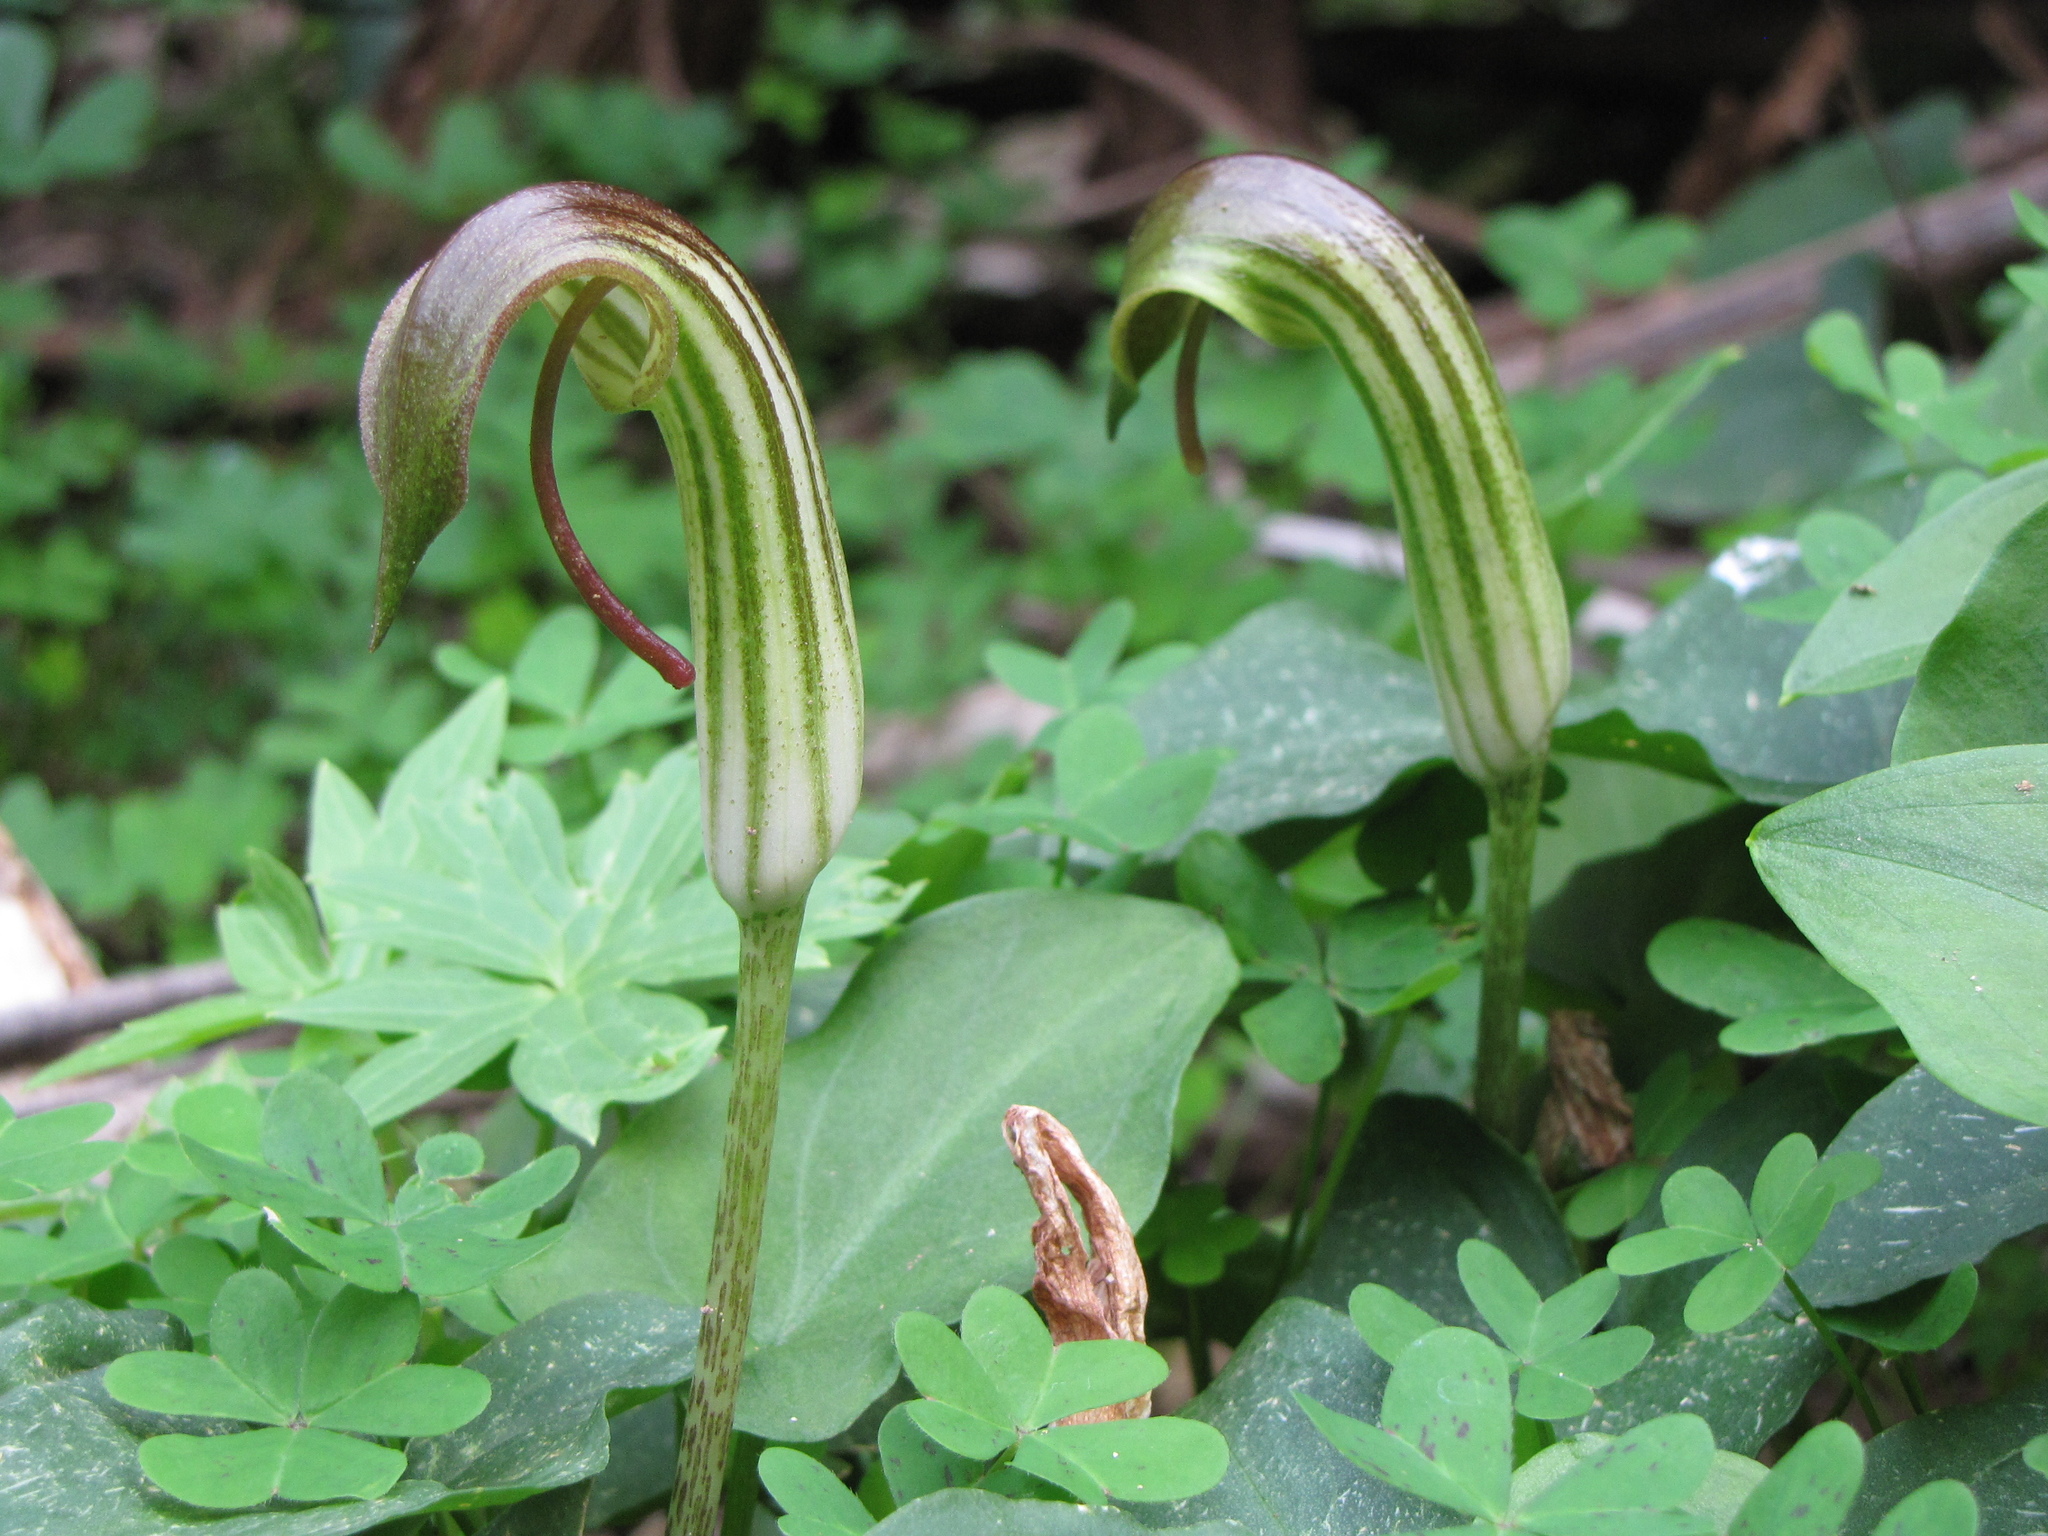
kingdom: Plantae
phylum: Tracheophyta
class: Liliopsida
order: Alismatales
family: Araceae
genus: Arisarum
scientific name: Arisarum vulgare
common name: Common arisarum
